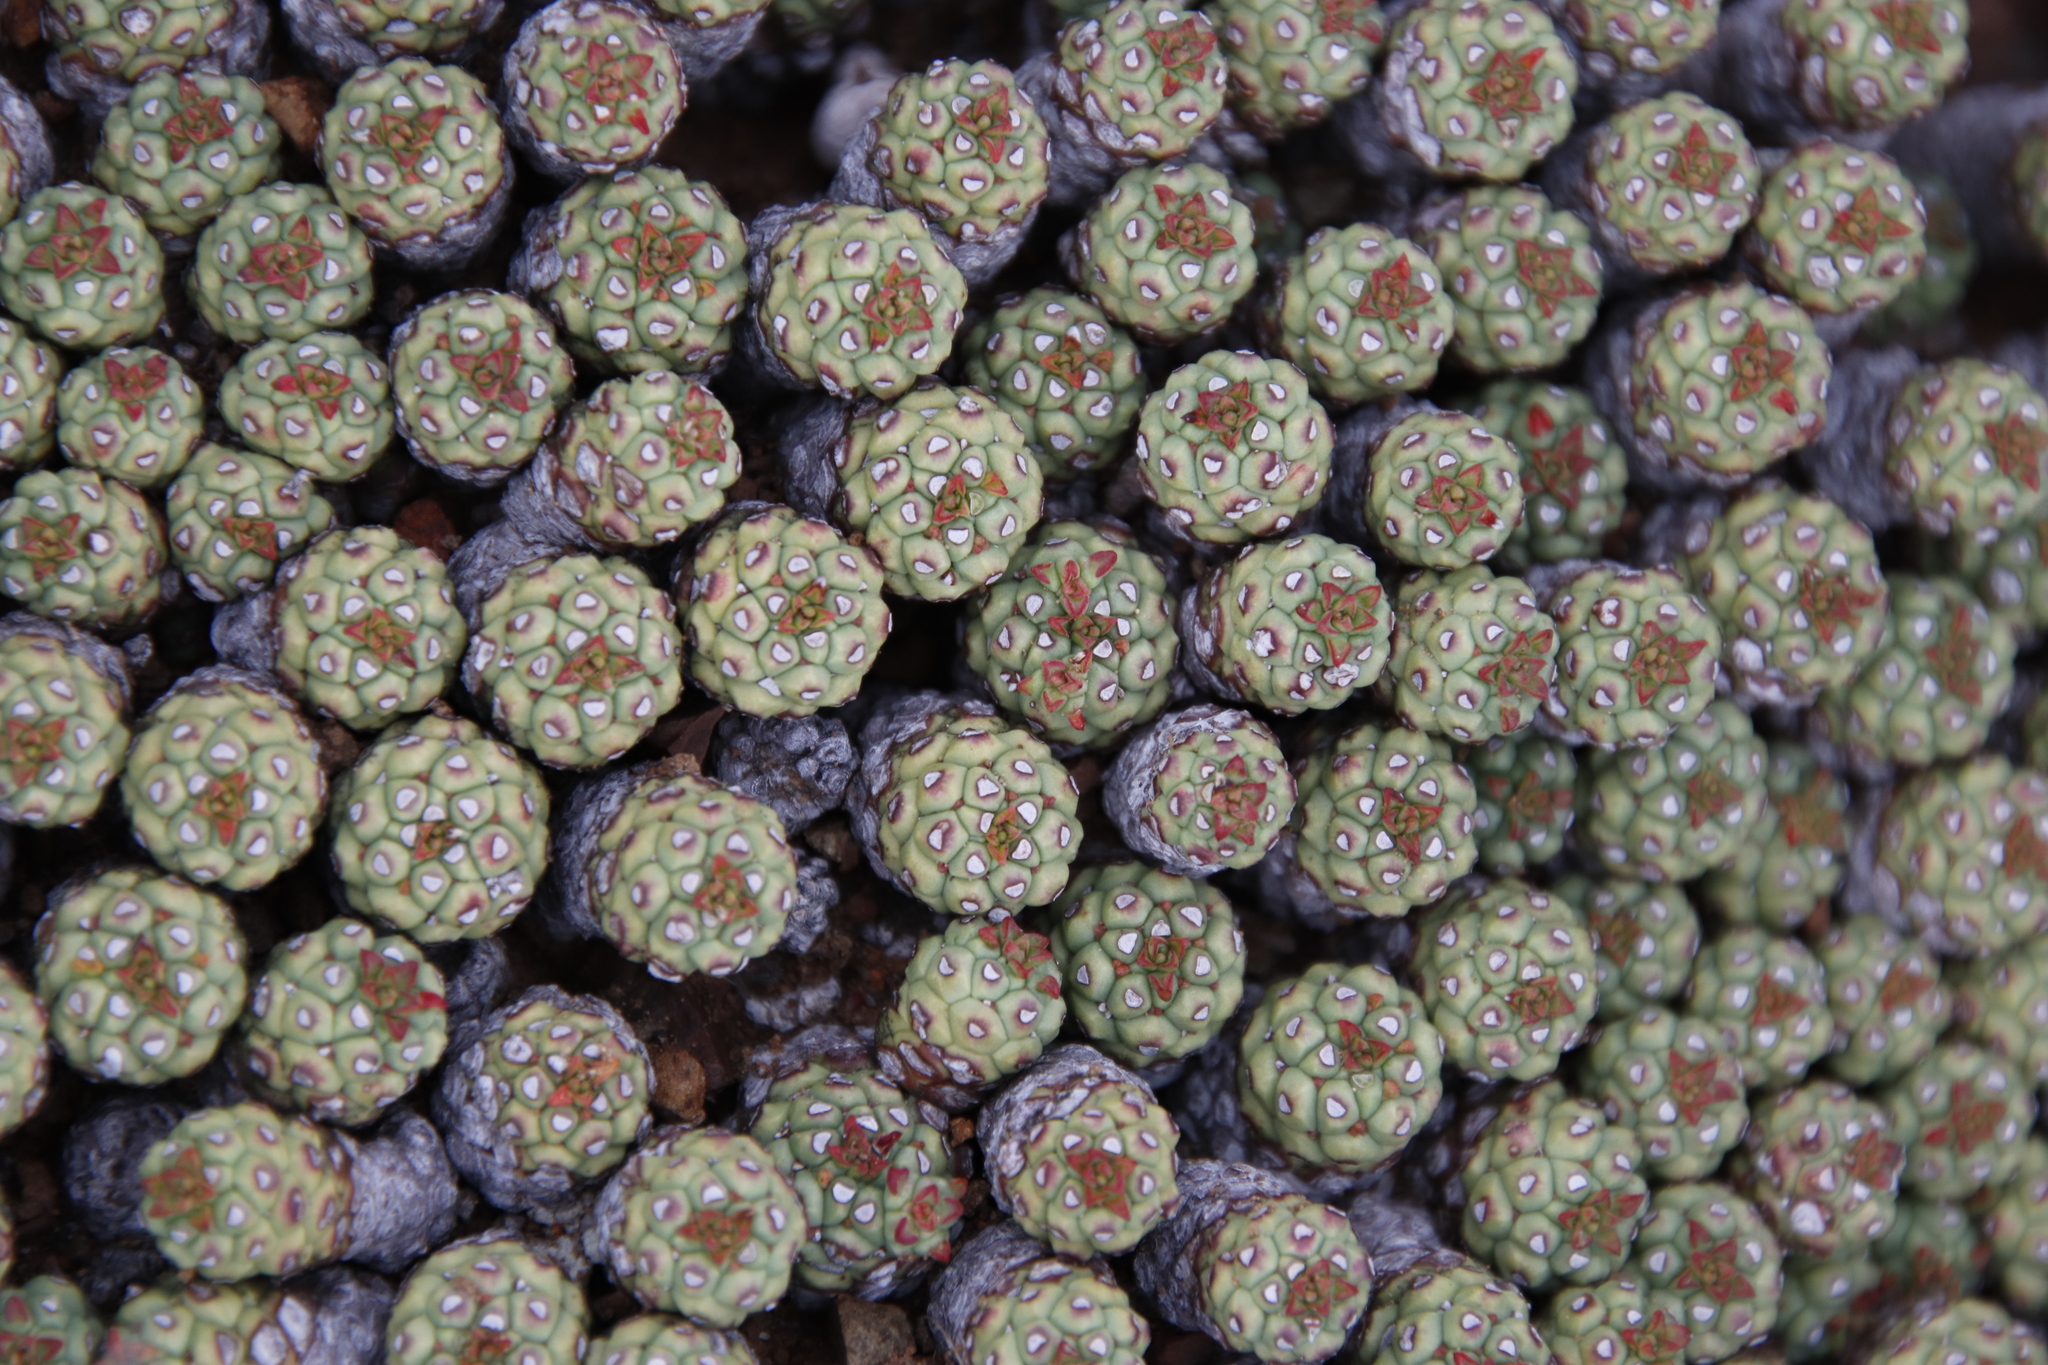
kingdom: Plantae
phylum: Tracheophyta
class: Magnoliopsida
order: Malpighiales
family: Euphorbiaceae
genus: Euphorbia
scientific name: Euphorbia clavarioides
